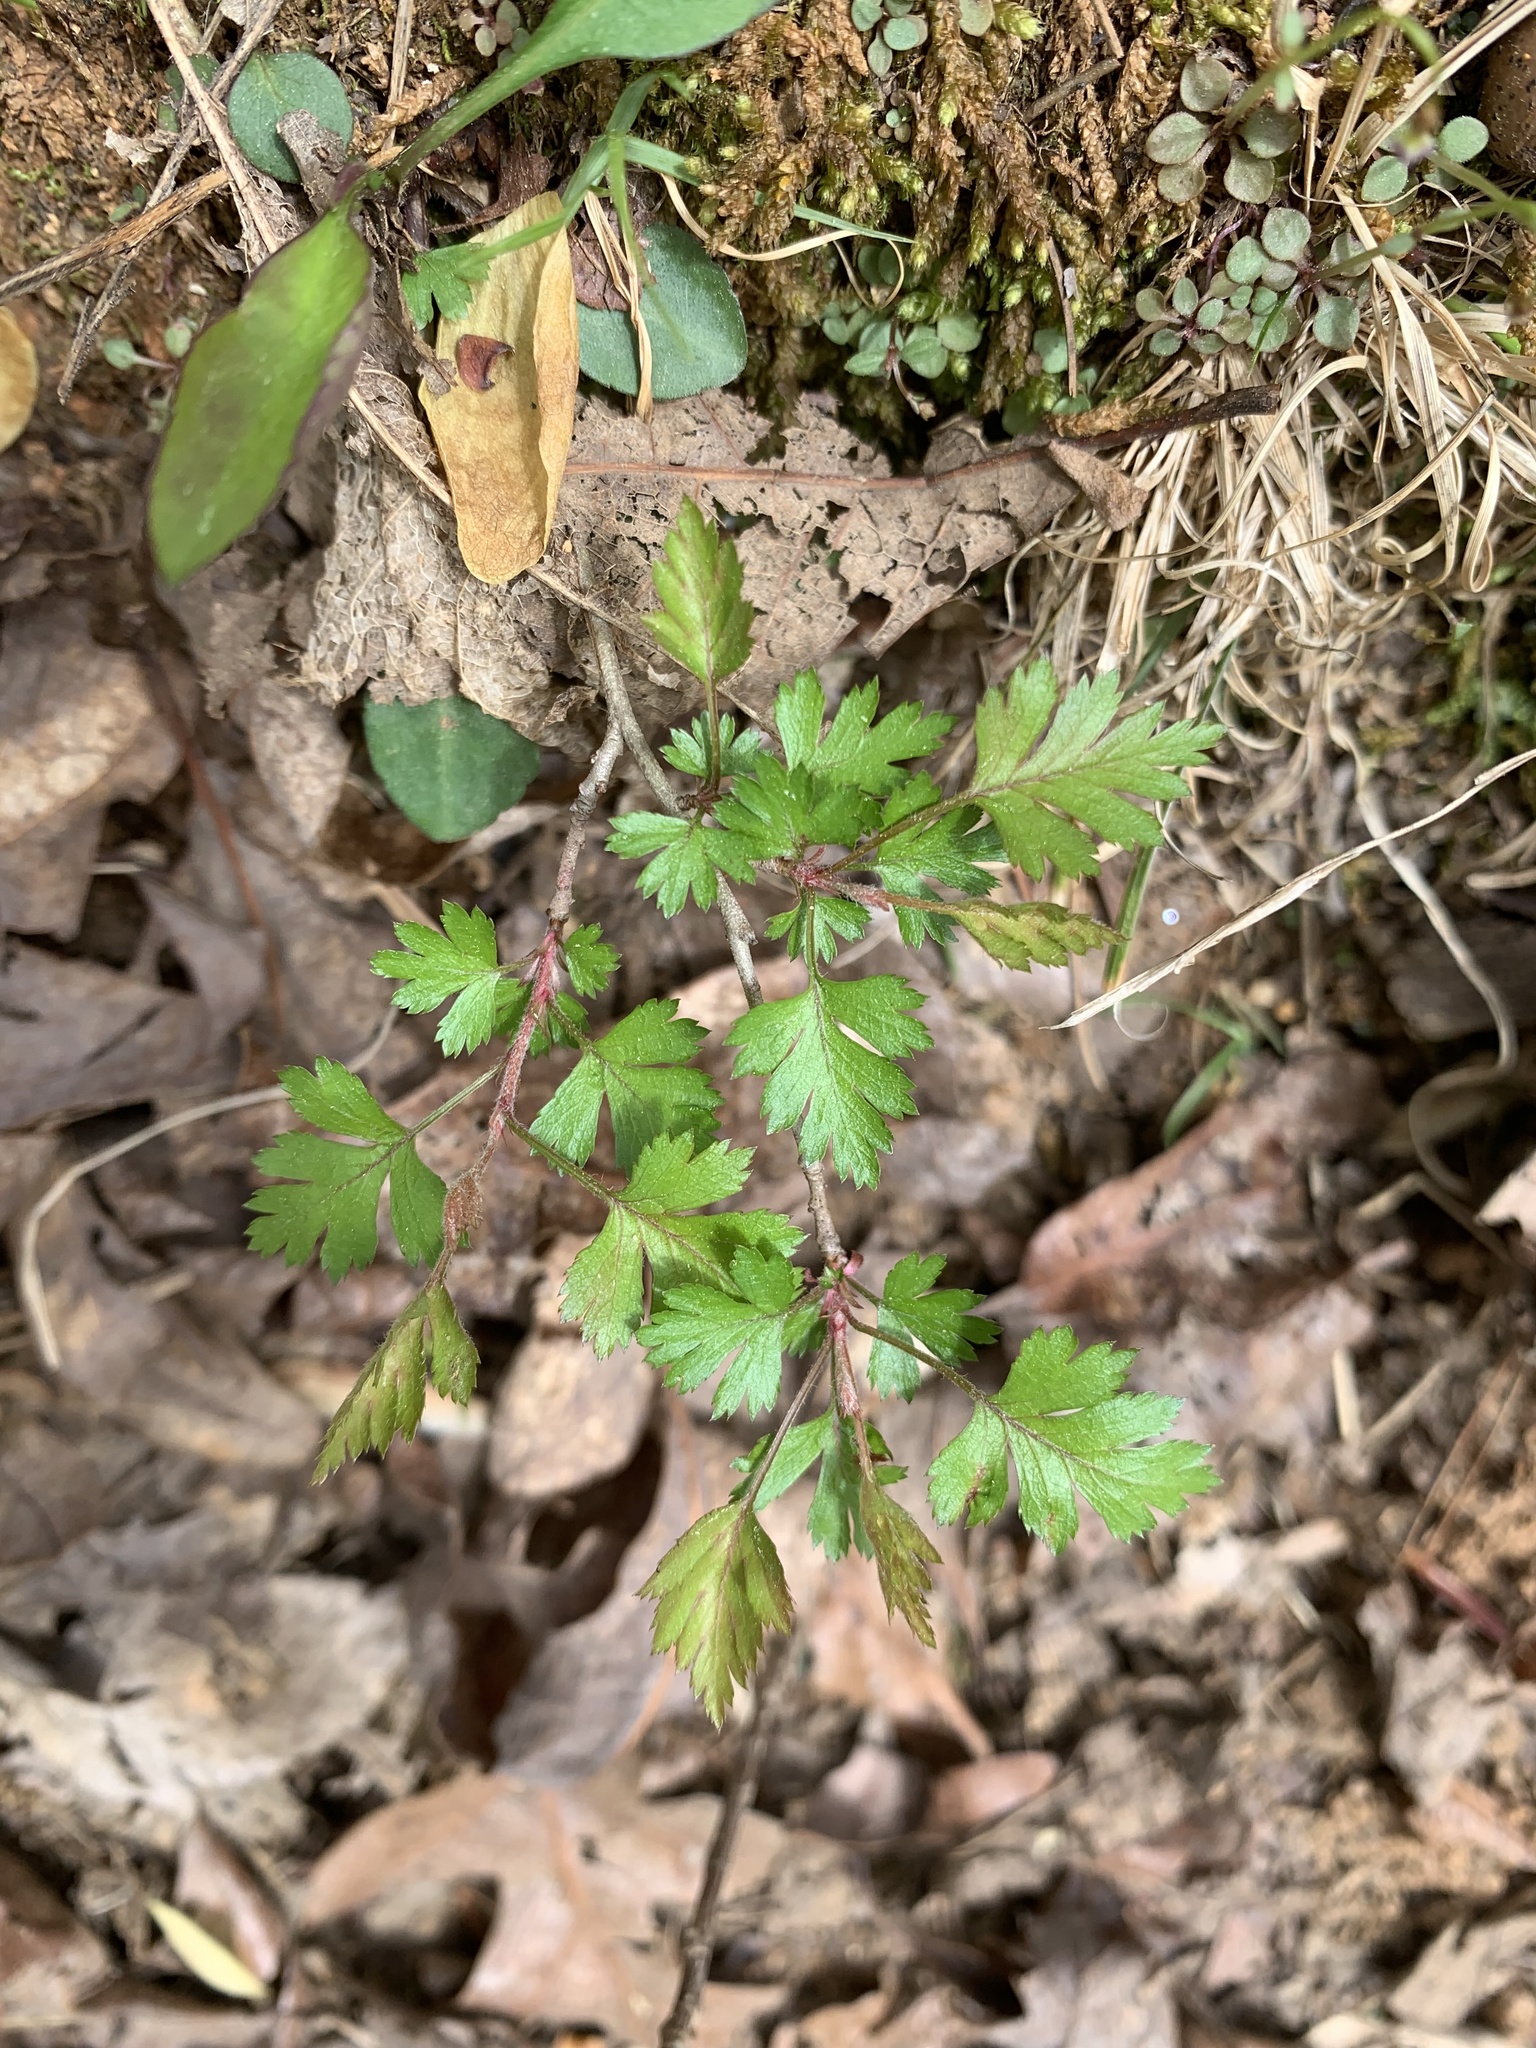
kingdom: Plantae
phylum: Tracheophyta
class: Magnoliopsida
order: Rosales
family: Rosaceae
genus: Crataegus
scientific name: Crataegus marshallii
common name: Parsley-hawthorn
